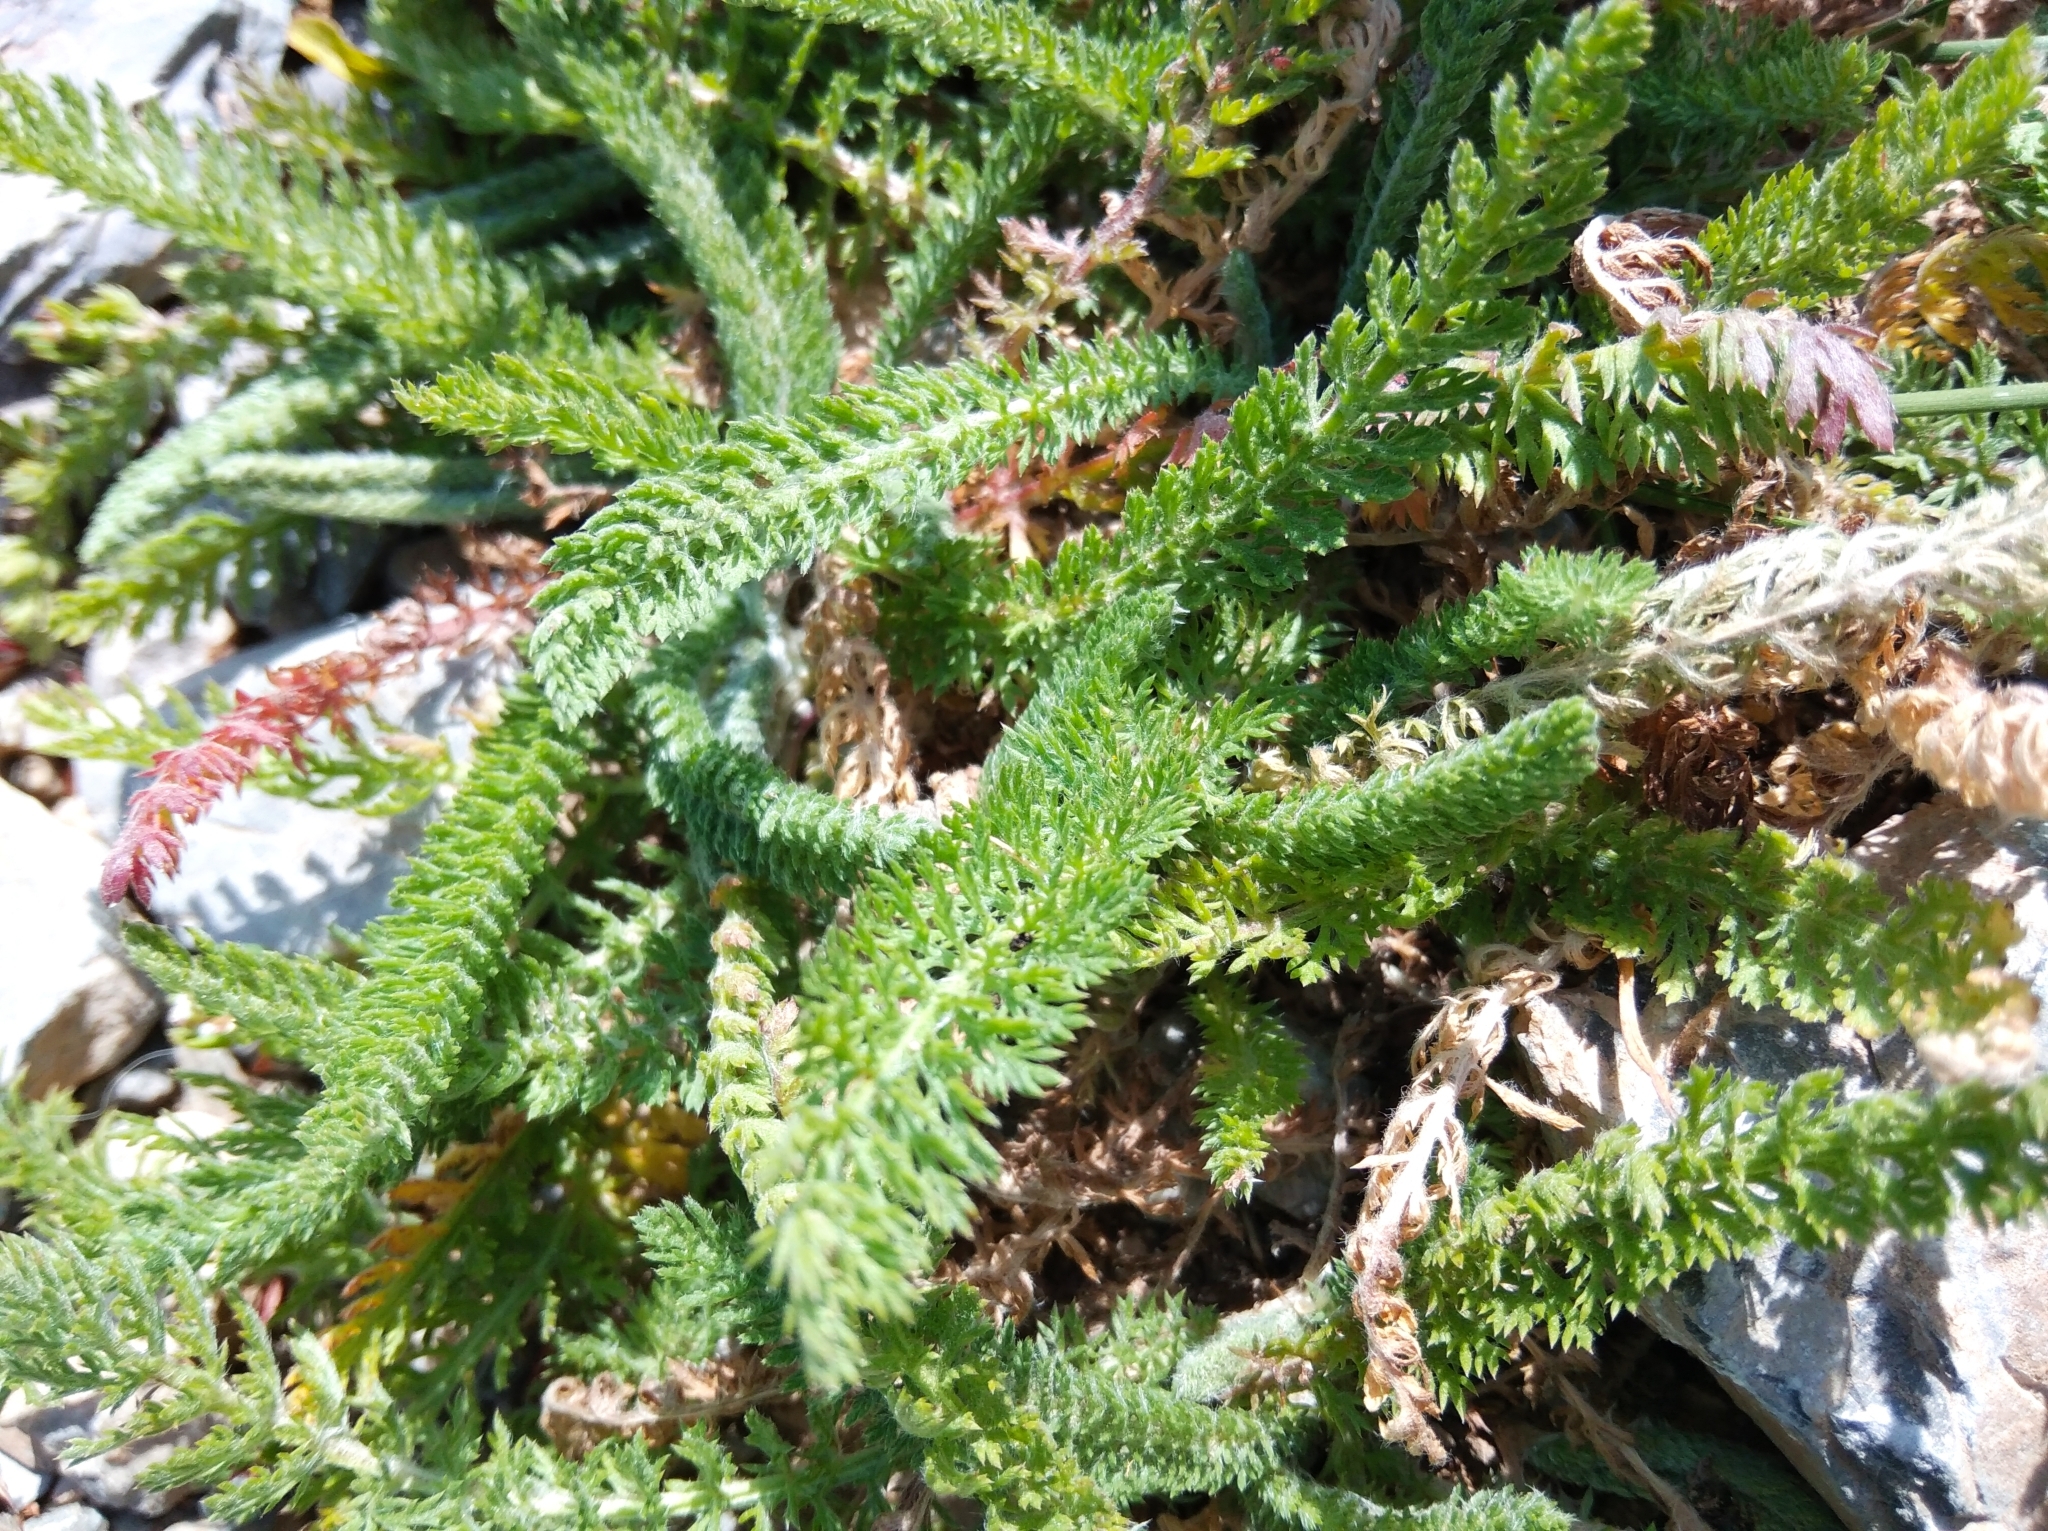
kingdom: Plantae
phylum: Tracheophyta
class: Magnoliopsida
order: Asterales
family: Asteraceae
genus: Achillea
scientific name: Achillea millefolium
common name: Yarrow
